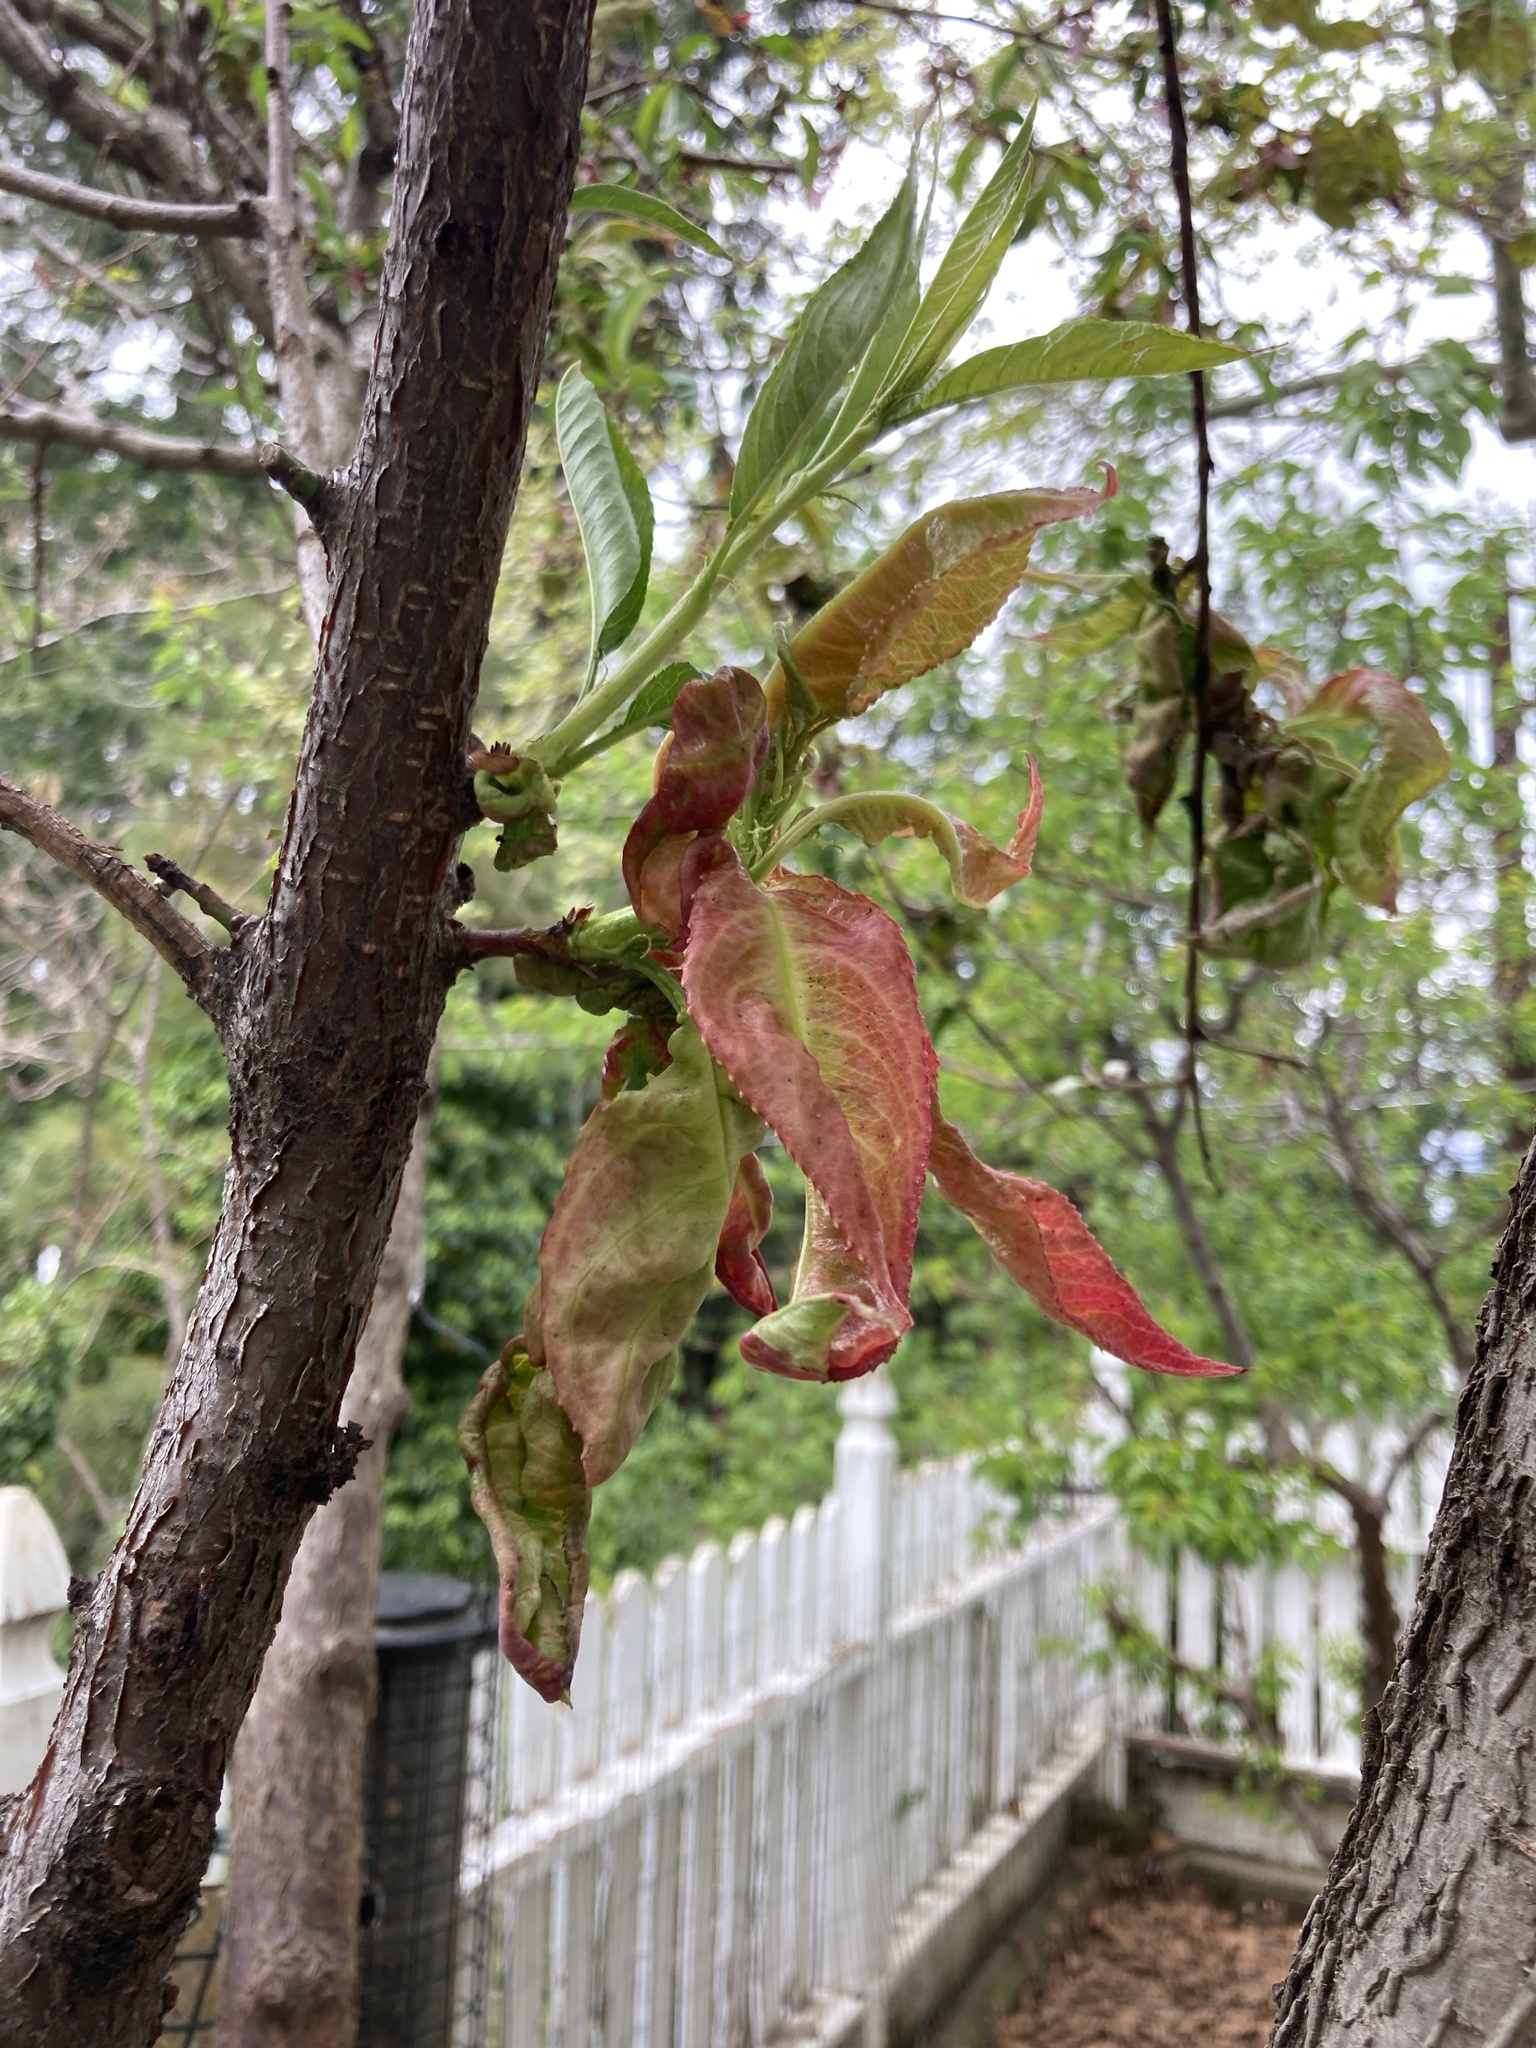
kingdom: Fungi
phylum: Ascomycota
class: Taphrinomycetes
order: Taphrinales
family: Taphrinaceae
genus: Taphrina
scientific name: Taphrina deformans
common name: Peach leaf curl
